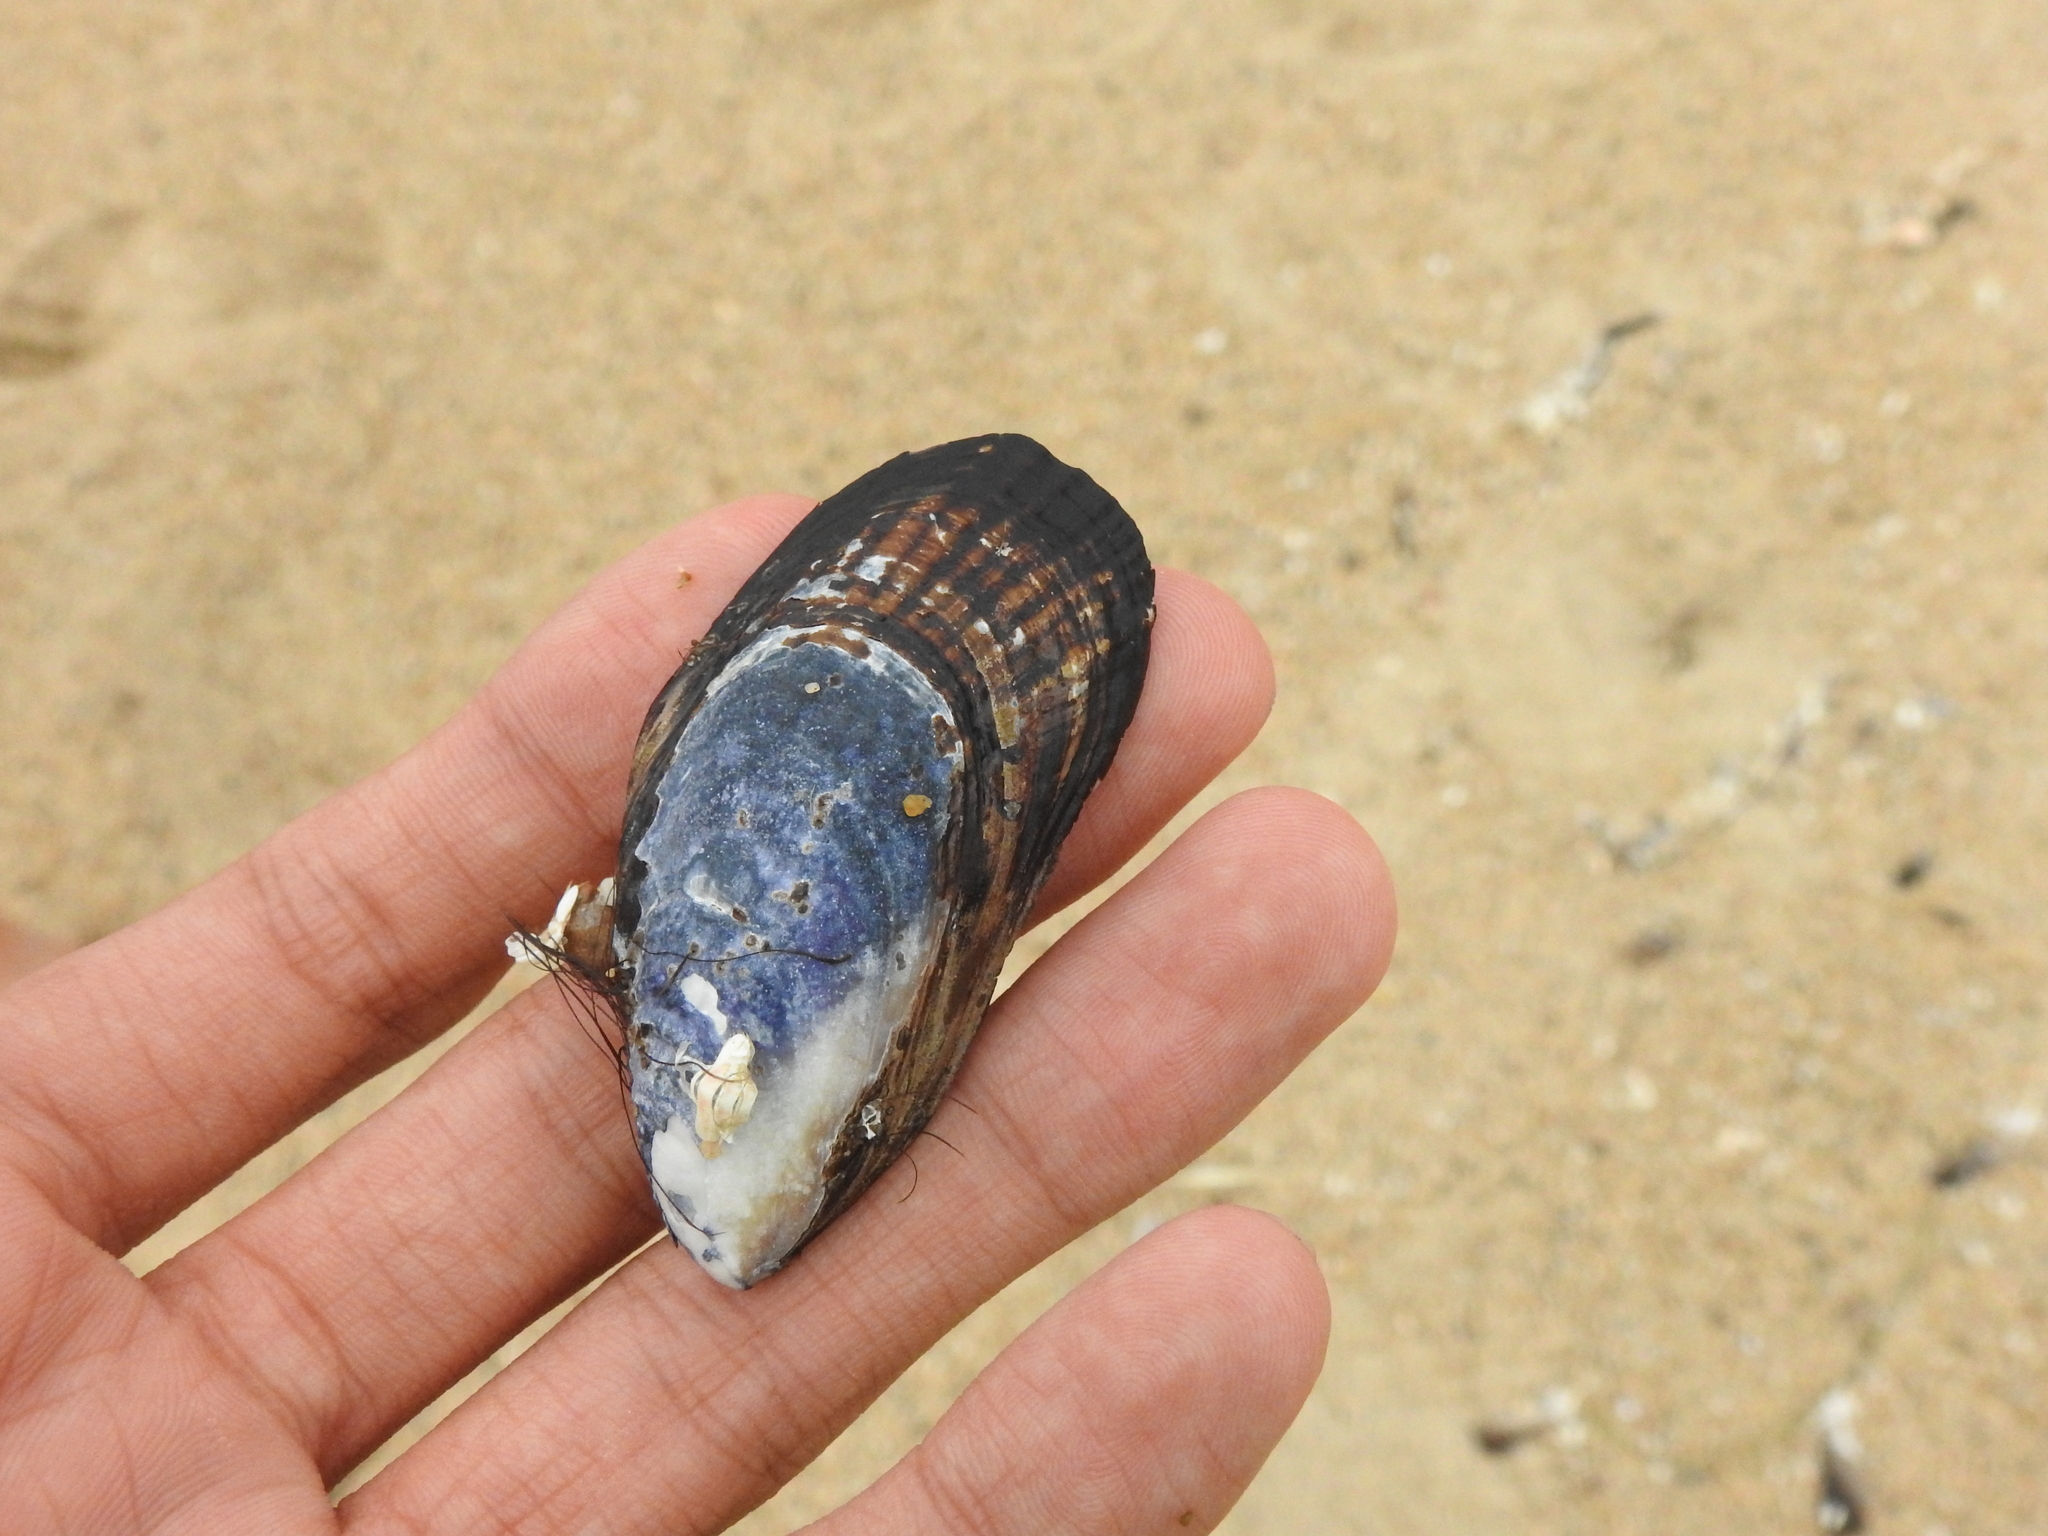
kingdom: Animalia
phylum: Mollusca
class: Bivalvia
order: Mytilida
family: Mytilidae
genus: Mytilus
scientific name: Mytilus californianus
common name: California mussel
